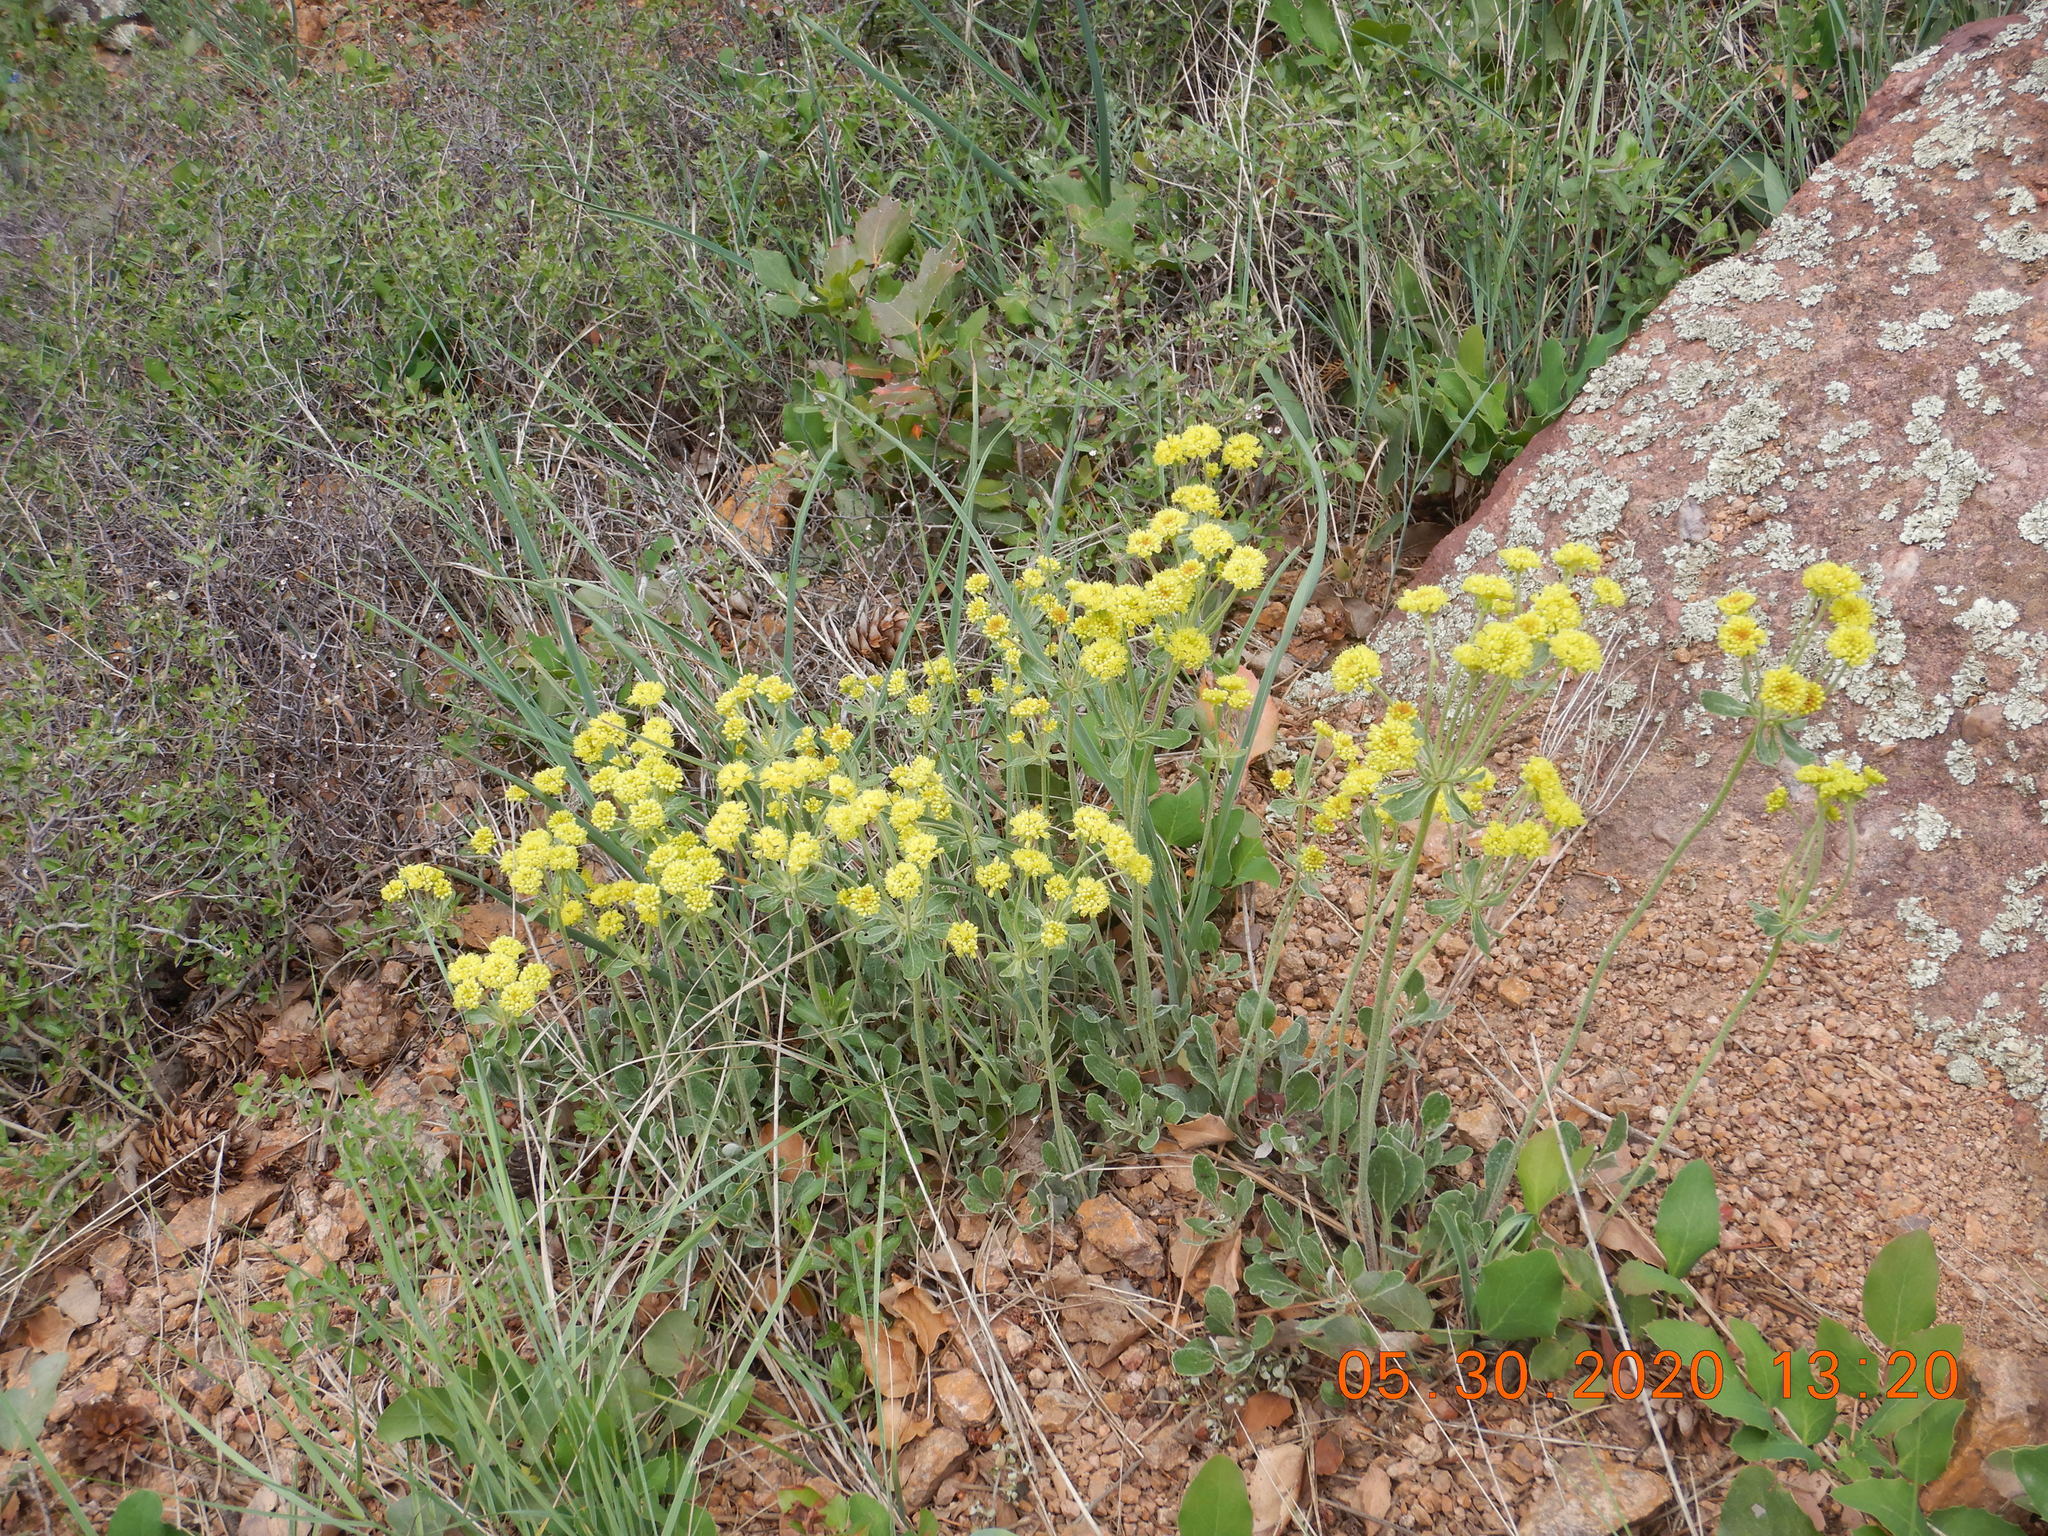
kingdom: Plantae
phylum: Tracheophyta
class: Magnoliopsida
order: Caryophyllales
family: Polygonaceae
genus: Eriogonum
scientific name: Eriogonum umbellatum
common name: Sulfur-buckwheat
